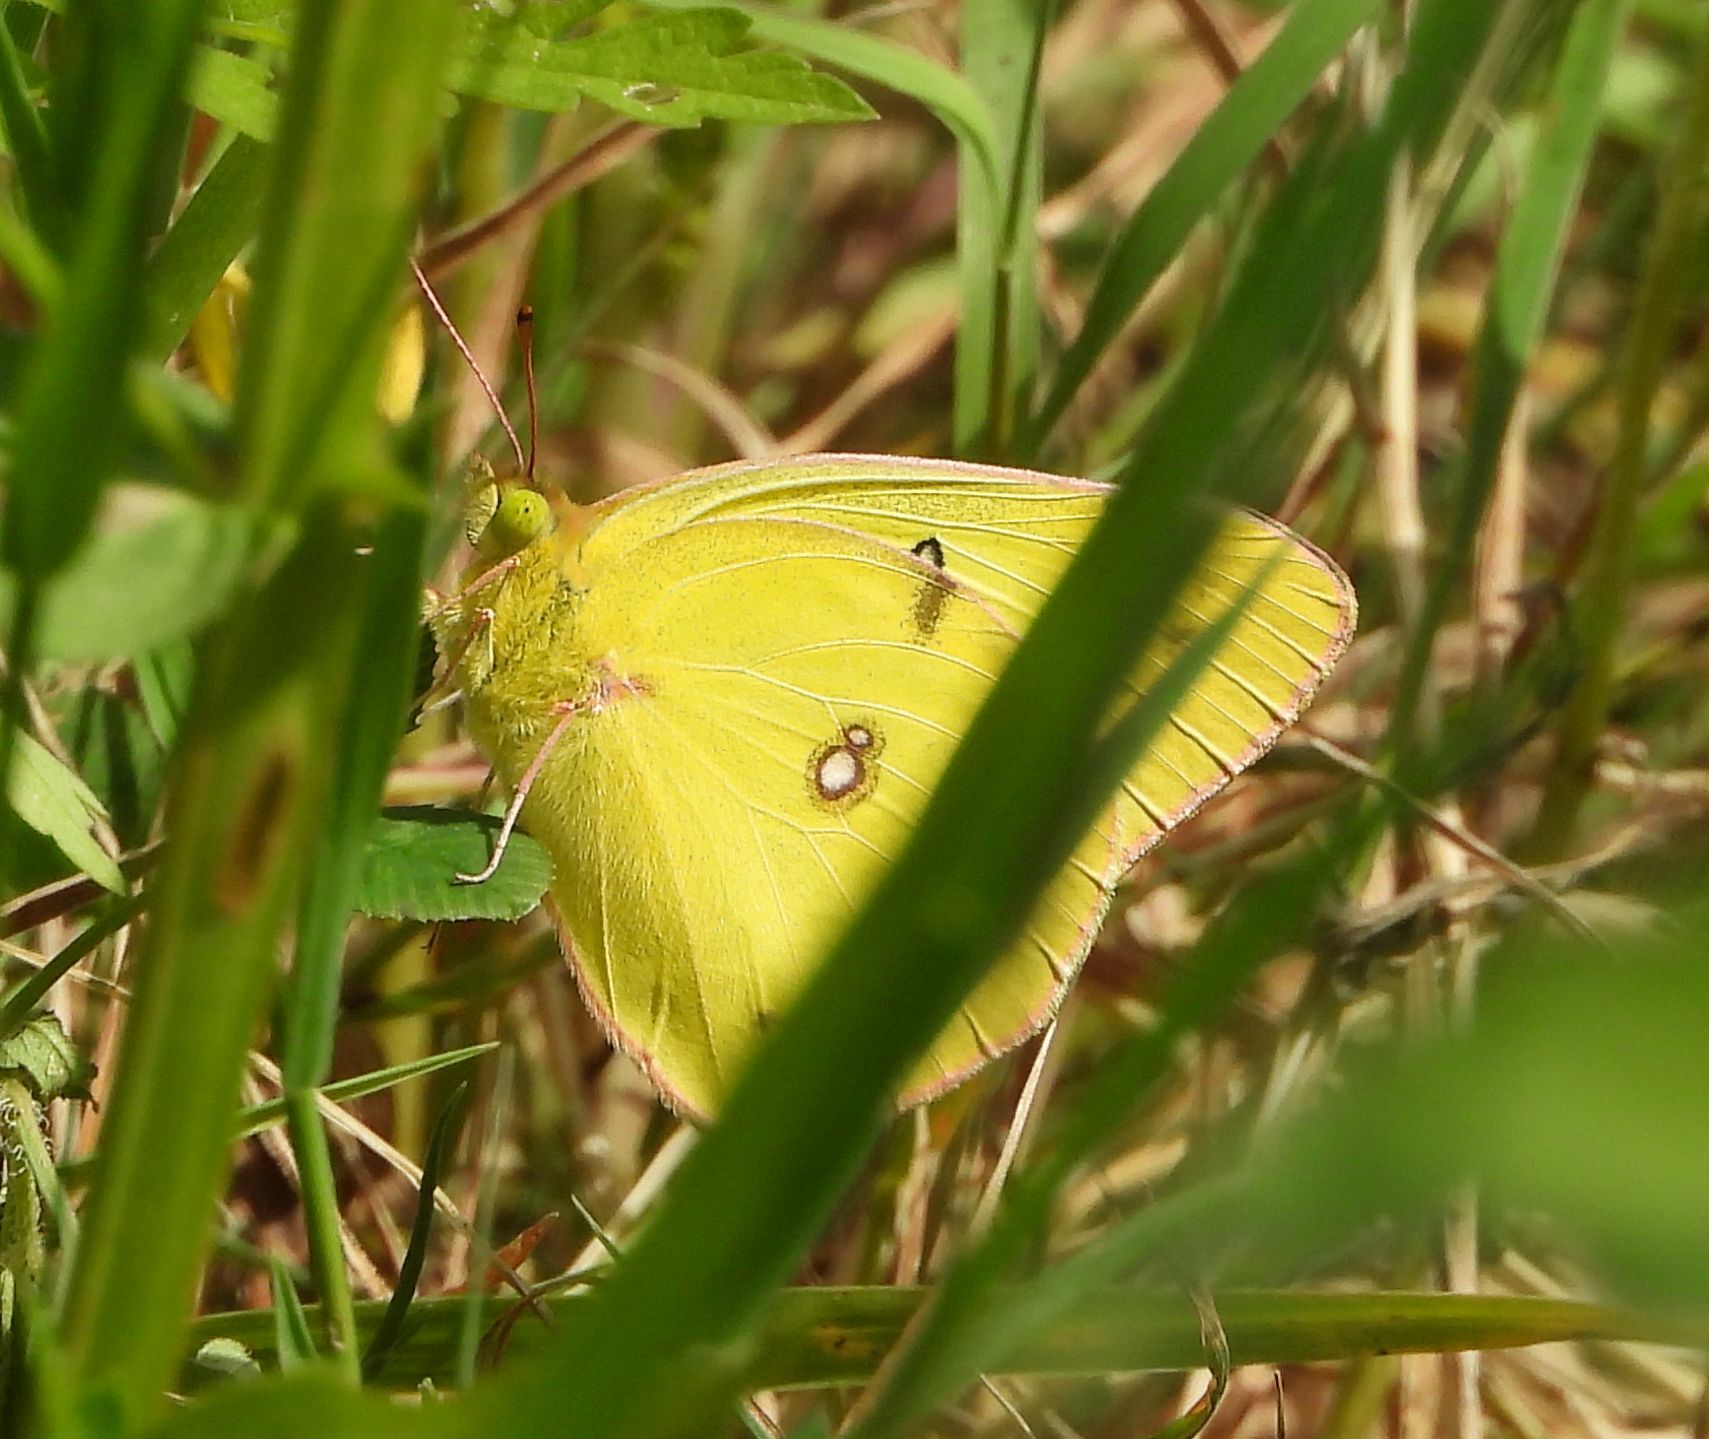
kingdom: Animalia
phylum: Arthropoda
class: Insecta
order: Lepidoptera
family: Pieridae
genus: Colias
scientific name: Colias philodice
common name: Clouded sulphur
